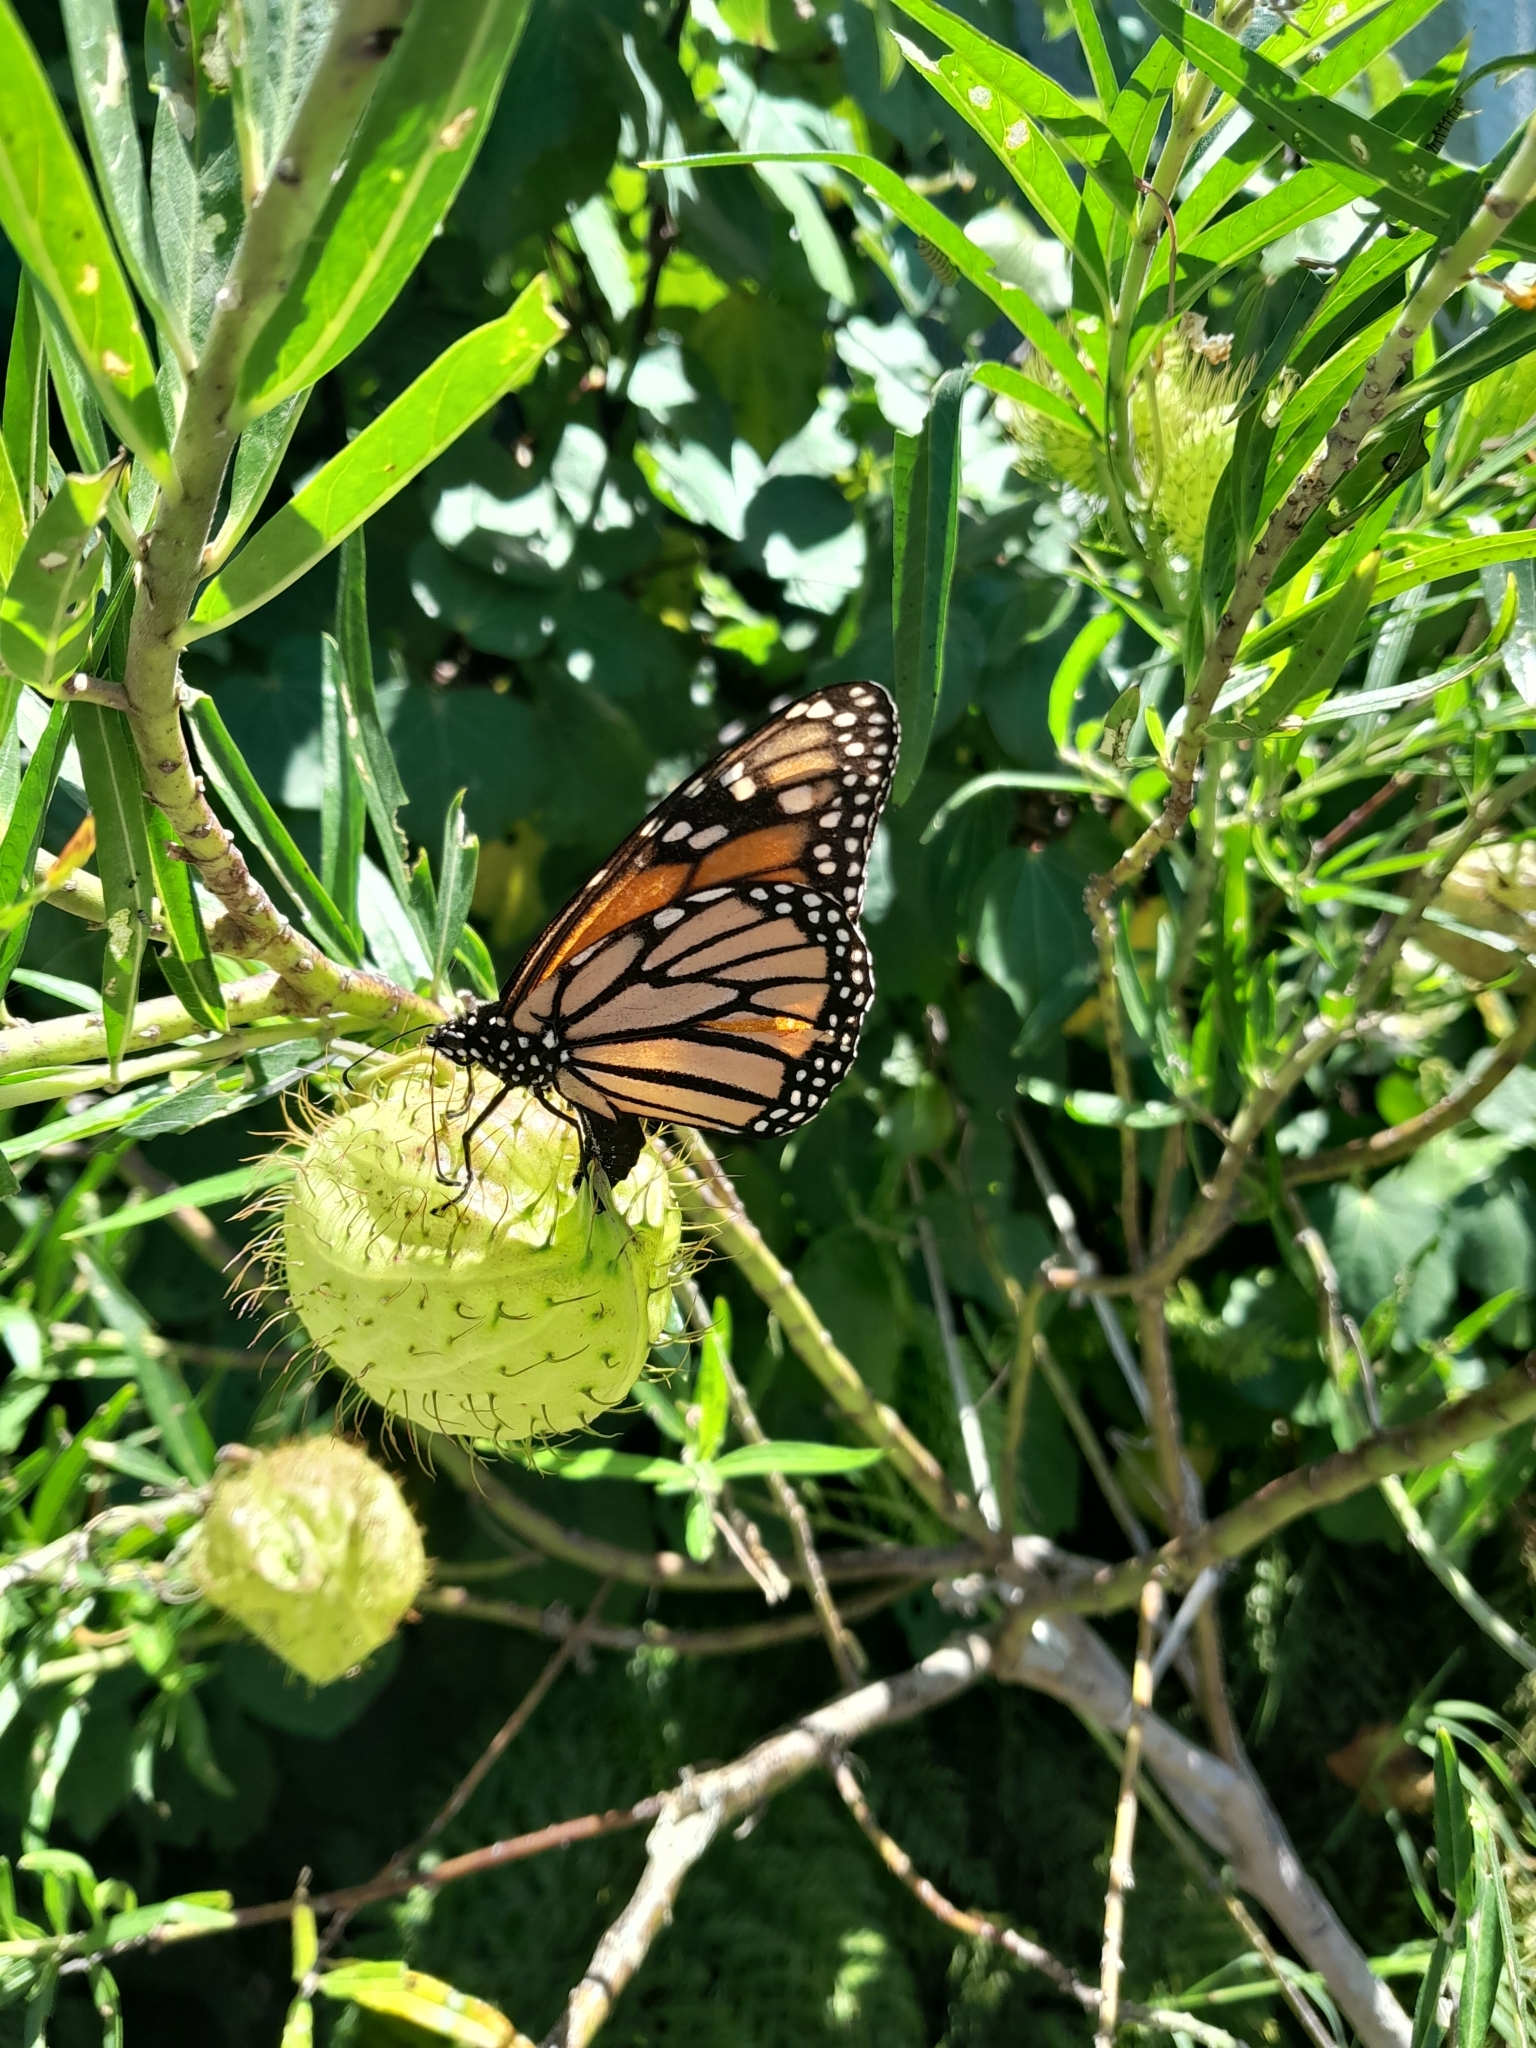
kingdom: Animalia
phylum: Arthropoda
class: Insecta
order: Lepidoptera
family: Nymphalidae
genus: Danaus
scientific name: Danaus plexippus
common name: Monarch
